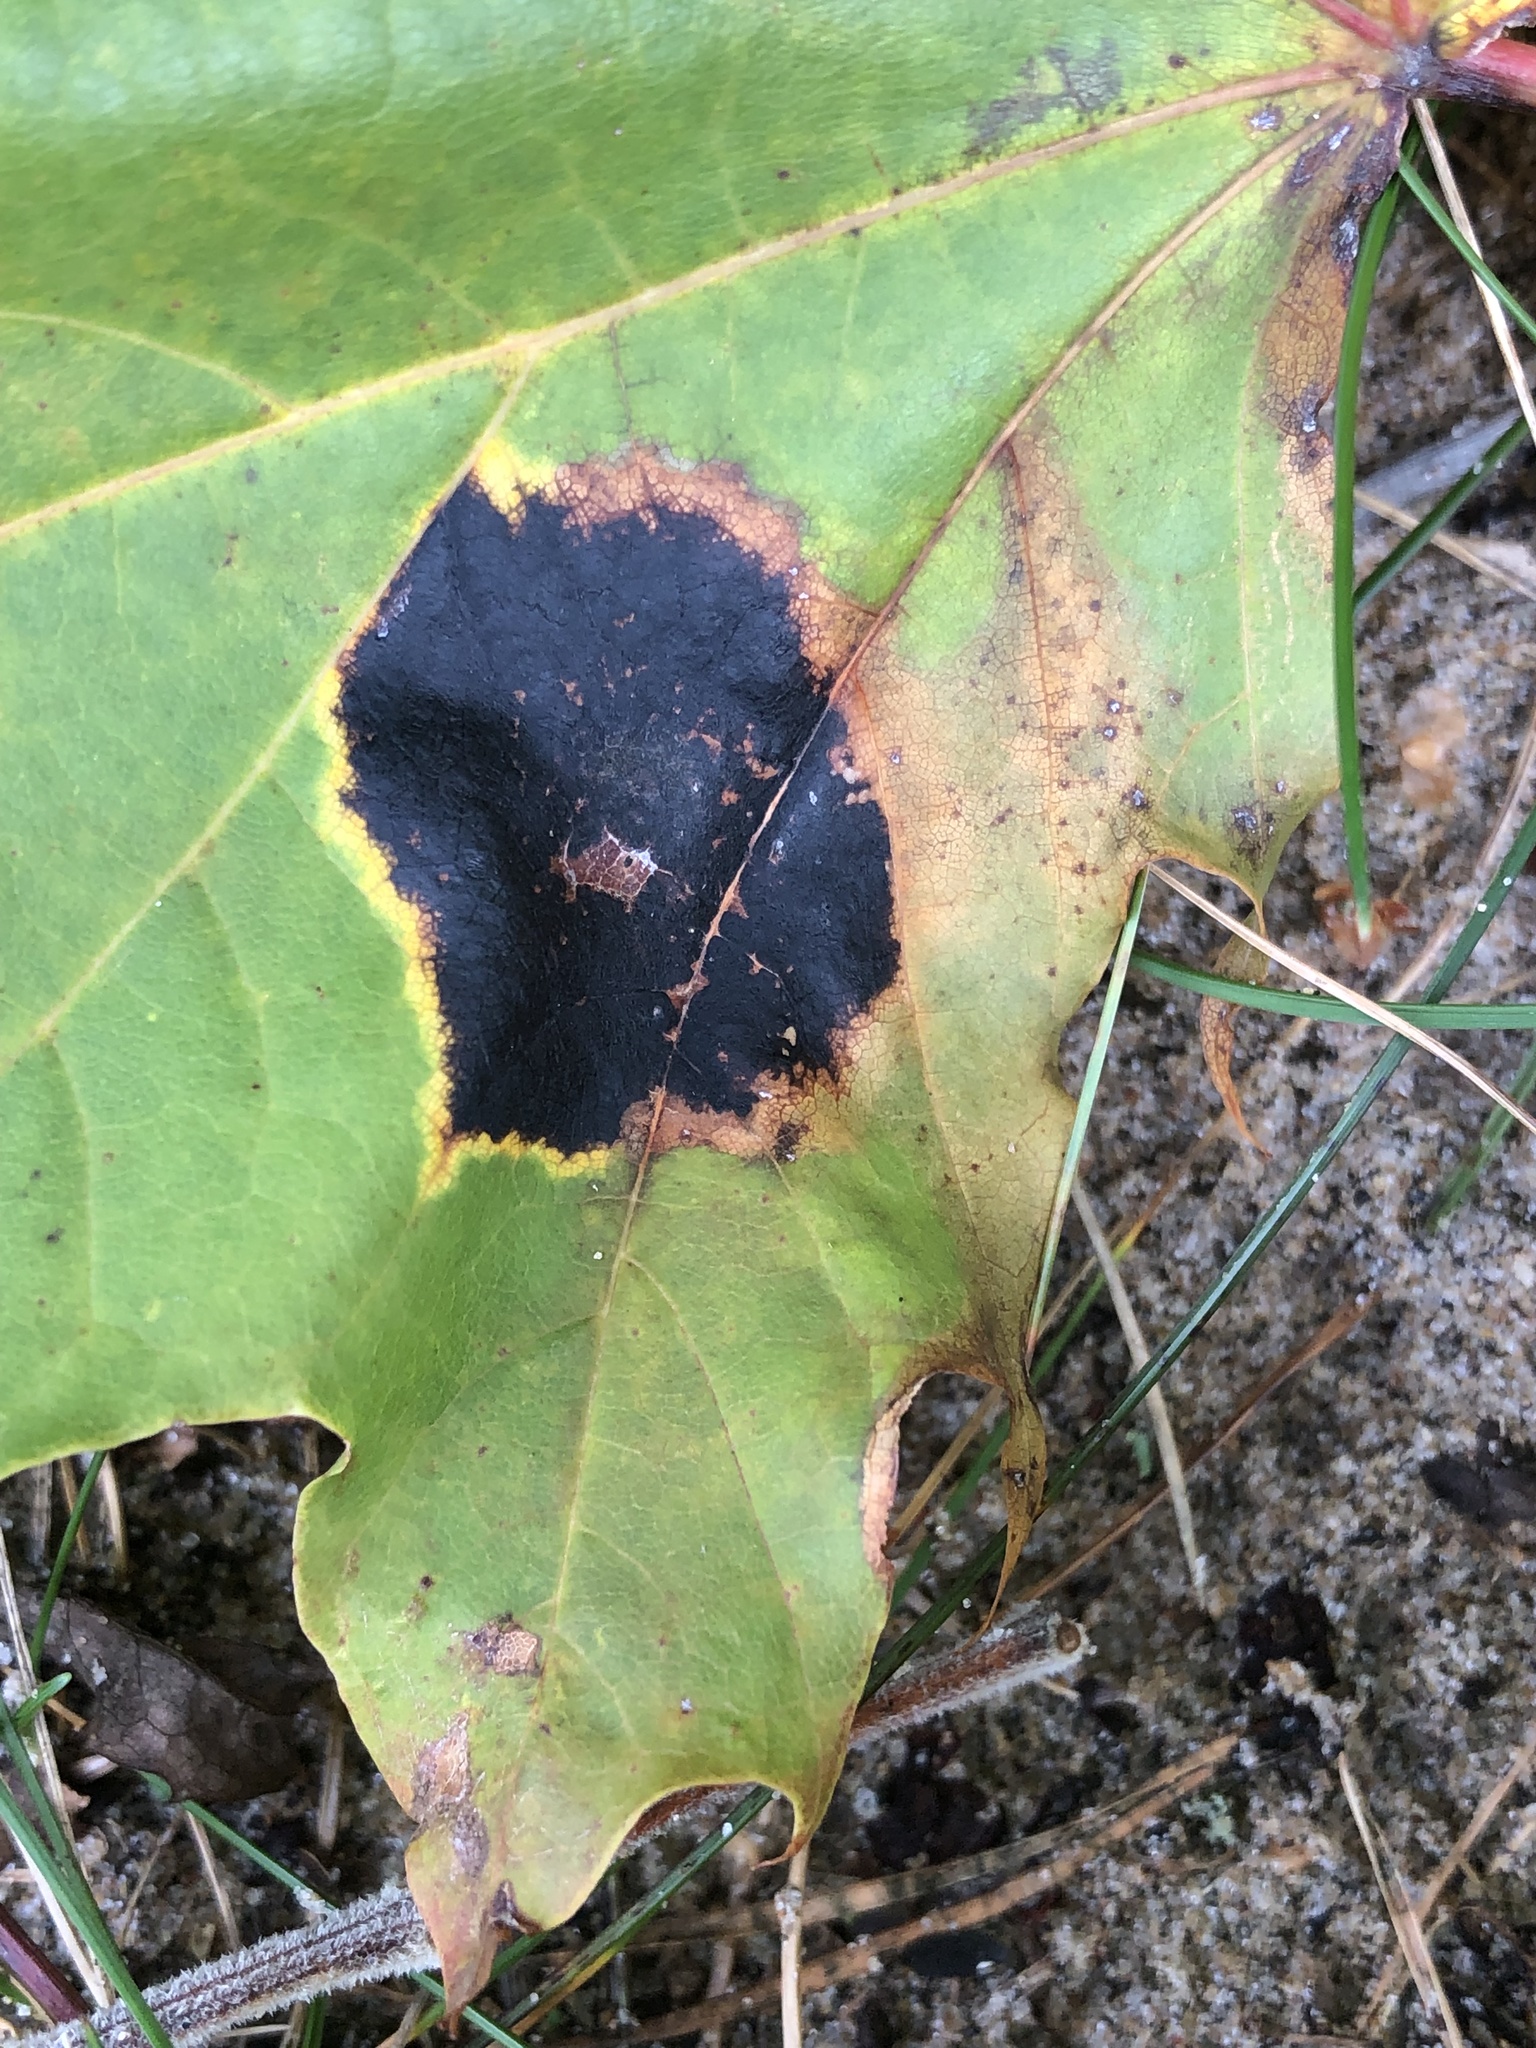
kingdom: Fungi
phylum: Ascomycota
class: Leotiomycetes
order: Rhytismatales
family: Rhytismataceae
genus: Rhytisma
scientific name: Rhytisma acerinum
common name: European tar spot
